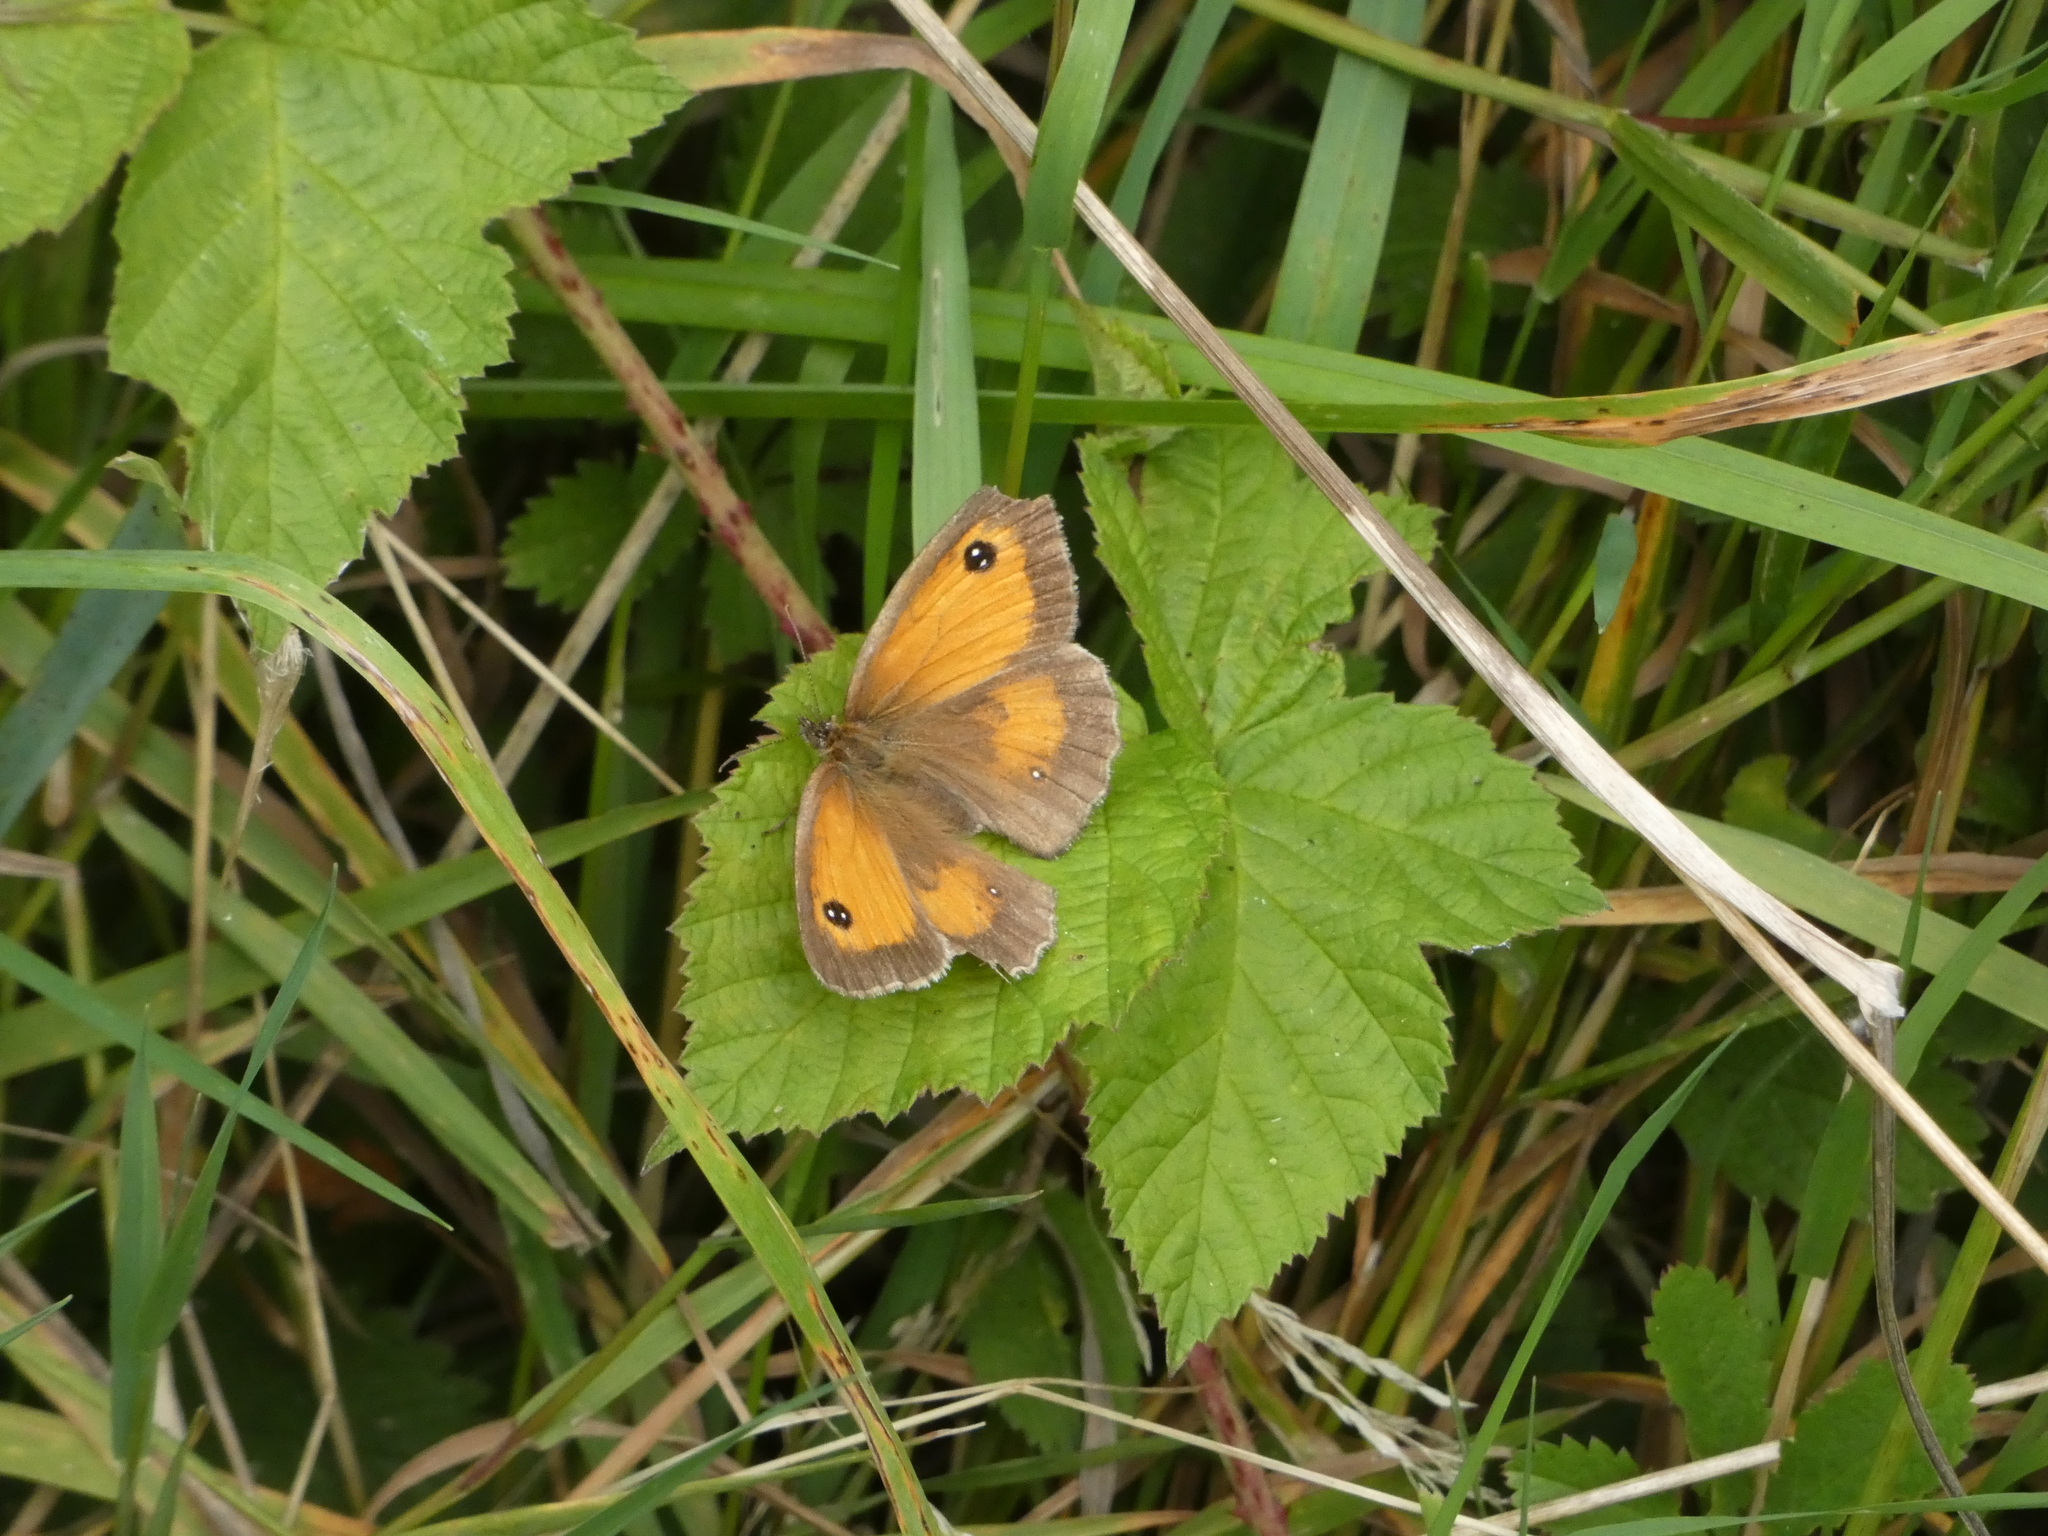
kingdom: Animalia
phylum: Arthropoda
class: Insecta
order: Lepidoptera
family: Nymphalidae
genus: Pyronia
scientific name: Pyronia tithonus
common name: Gatekeeper
